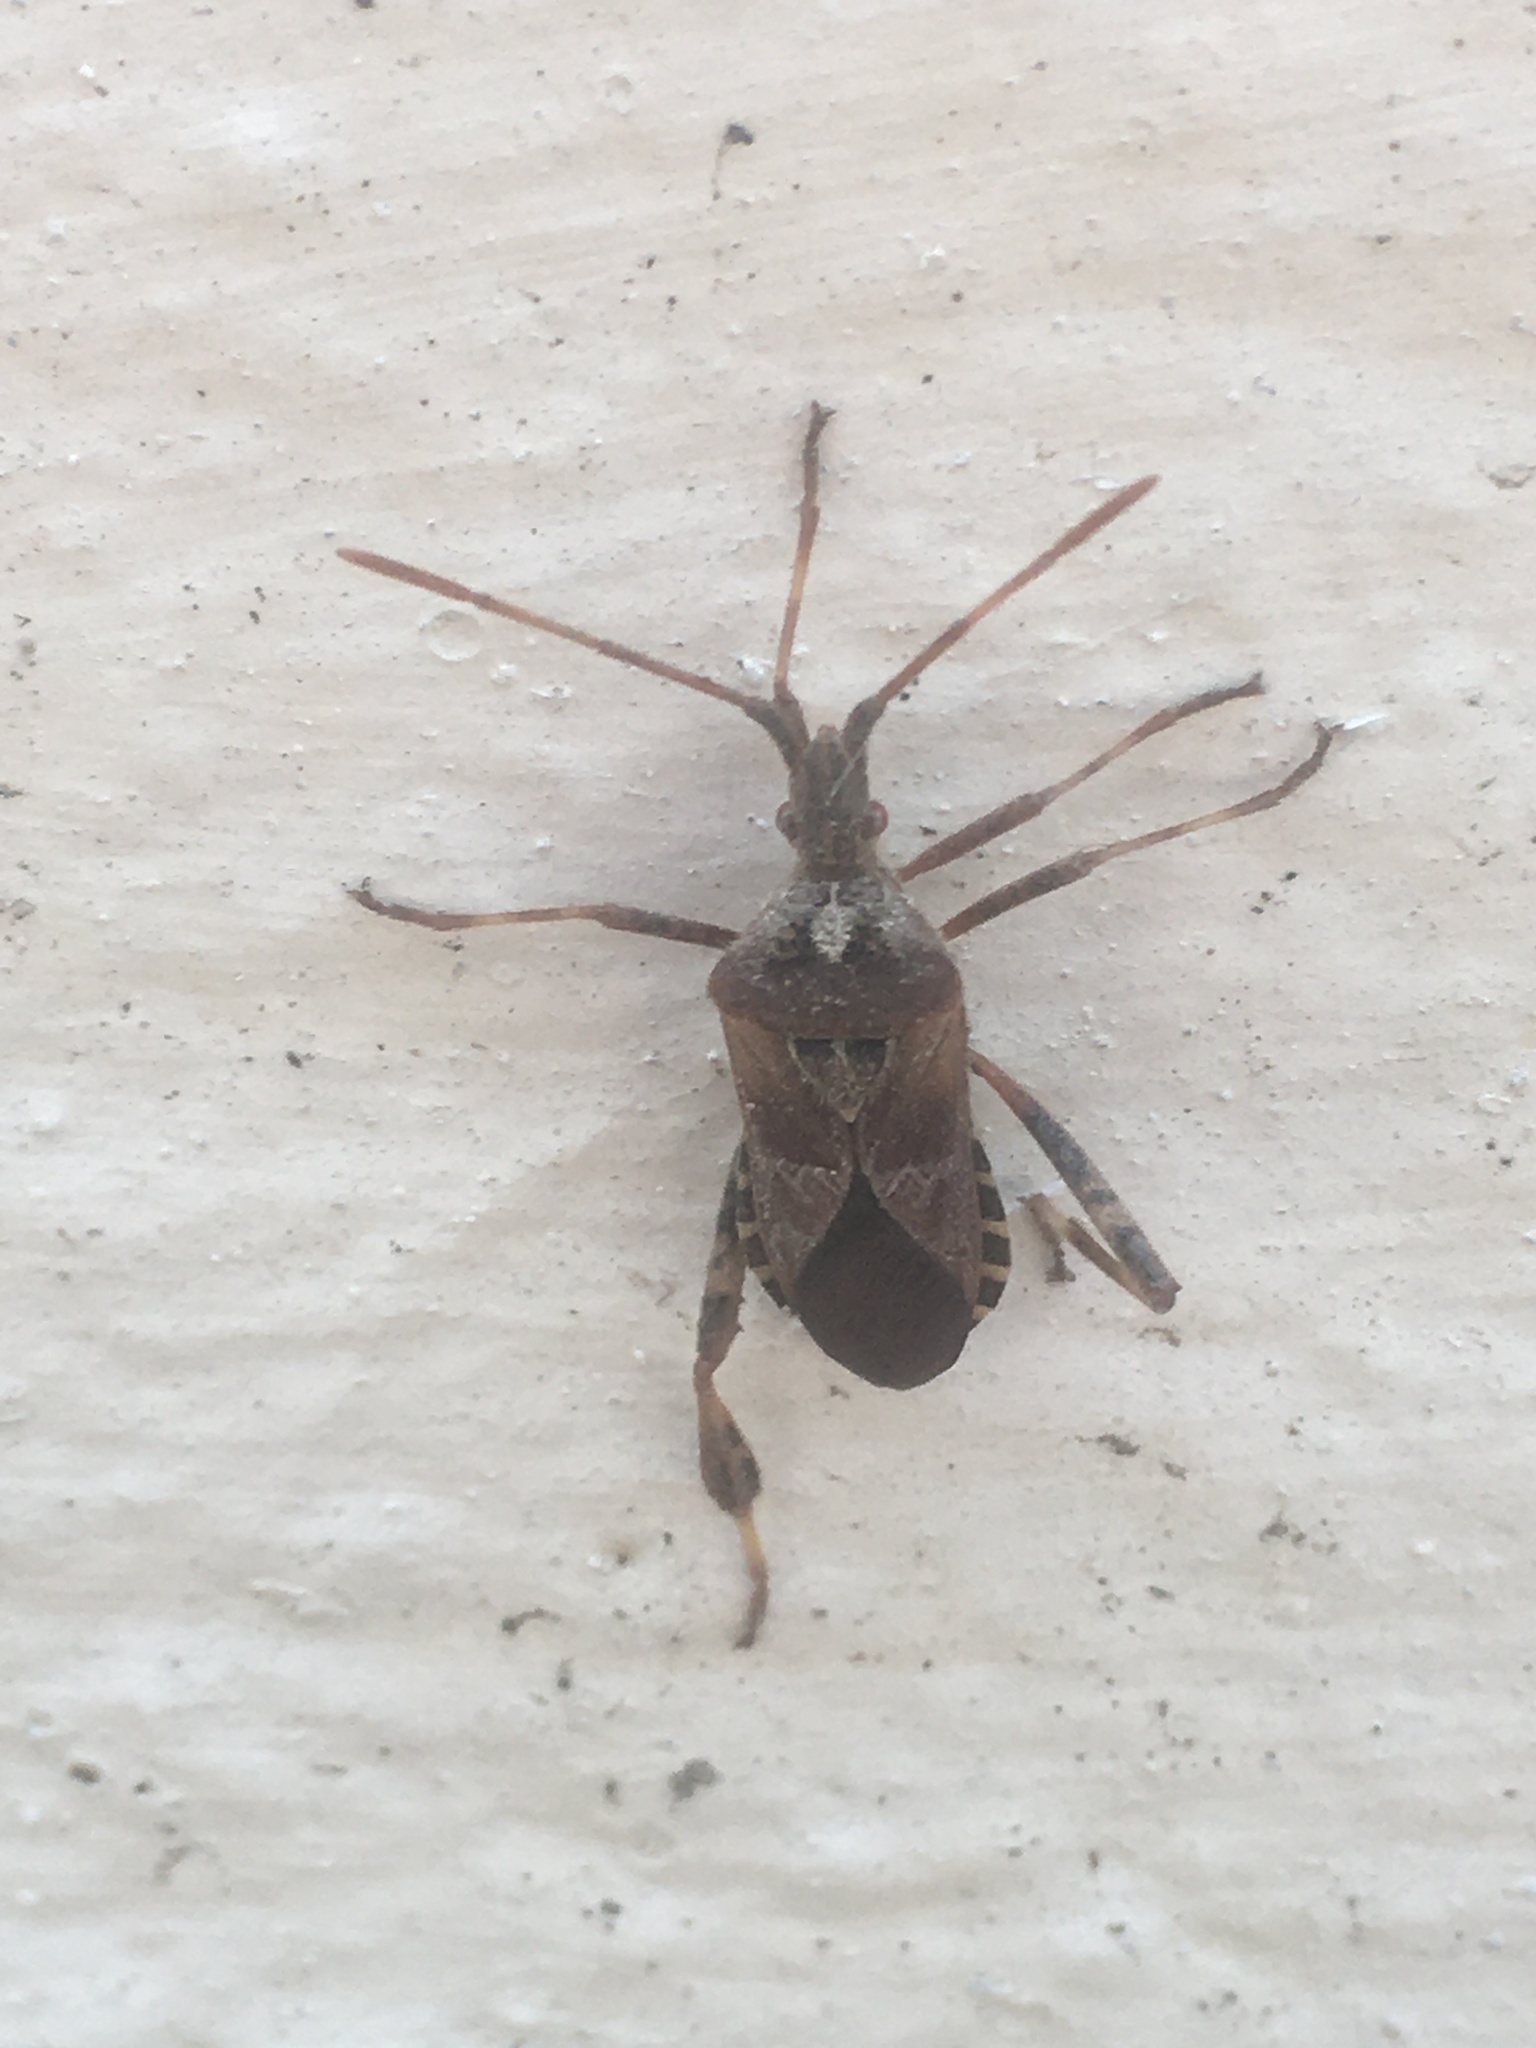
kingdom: Animalia
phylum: Arthropoda
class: Insecta
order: Hemiptera
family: Coreidae
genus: Leptoglossus
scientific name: Leptoglossus occidentalis
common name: Western conifer-seed bug
